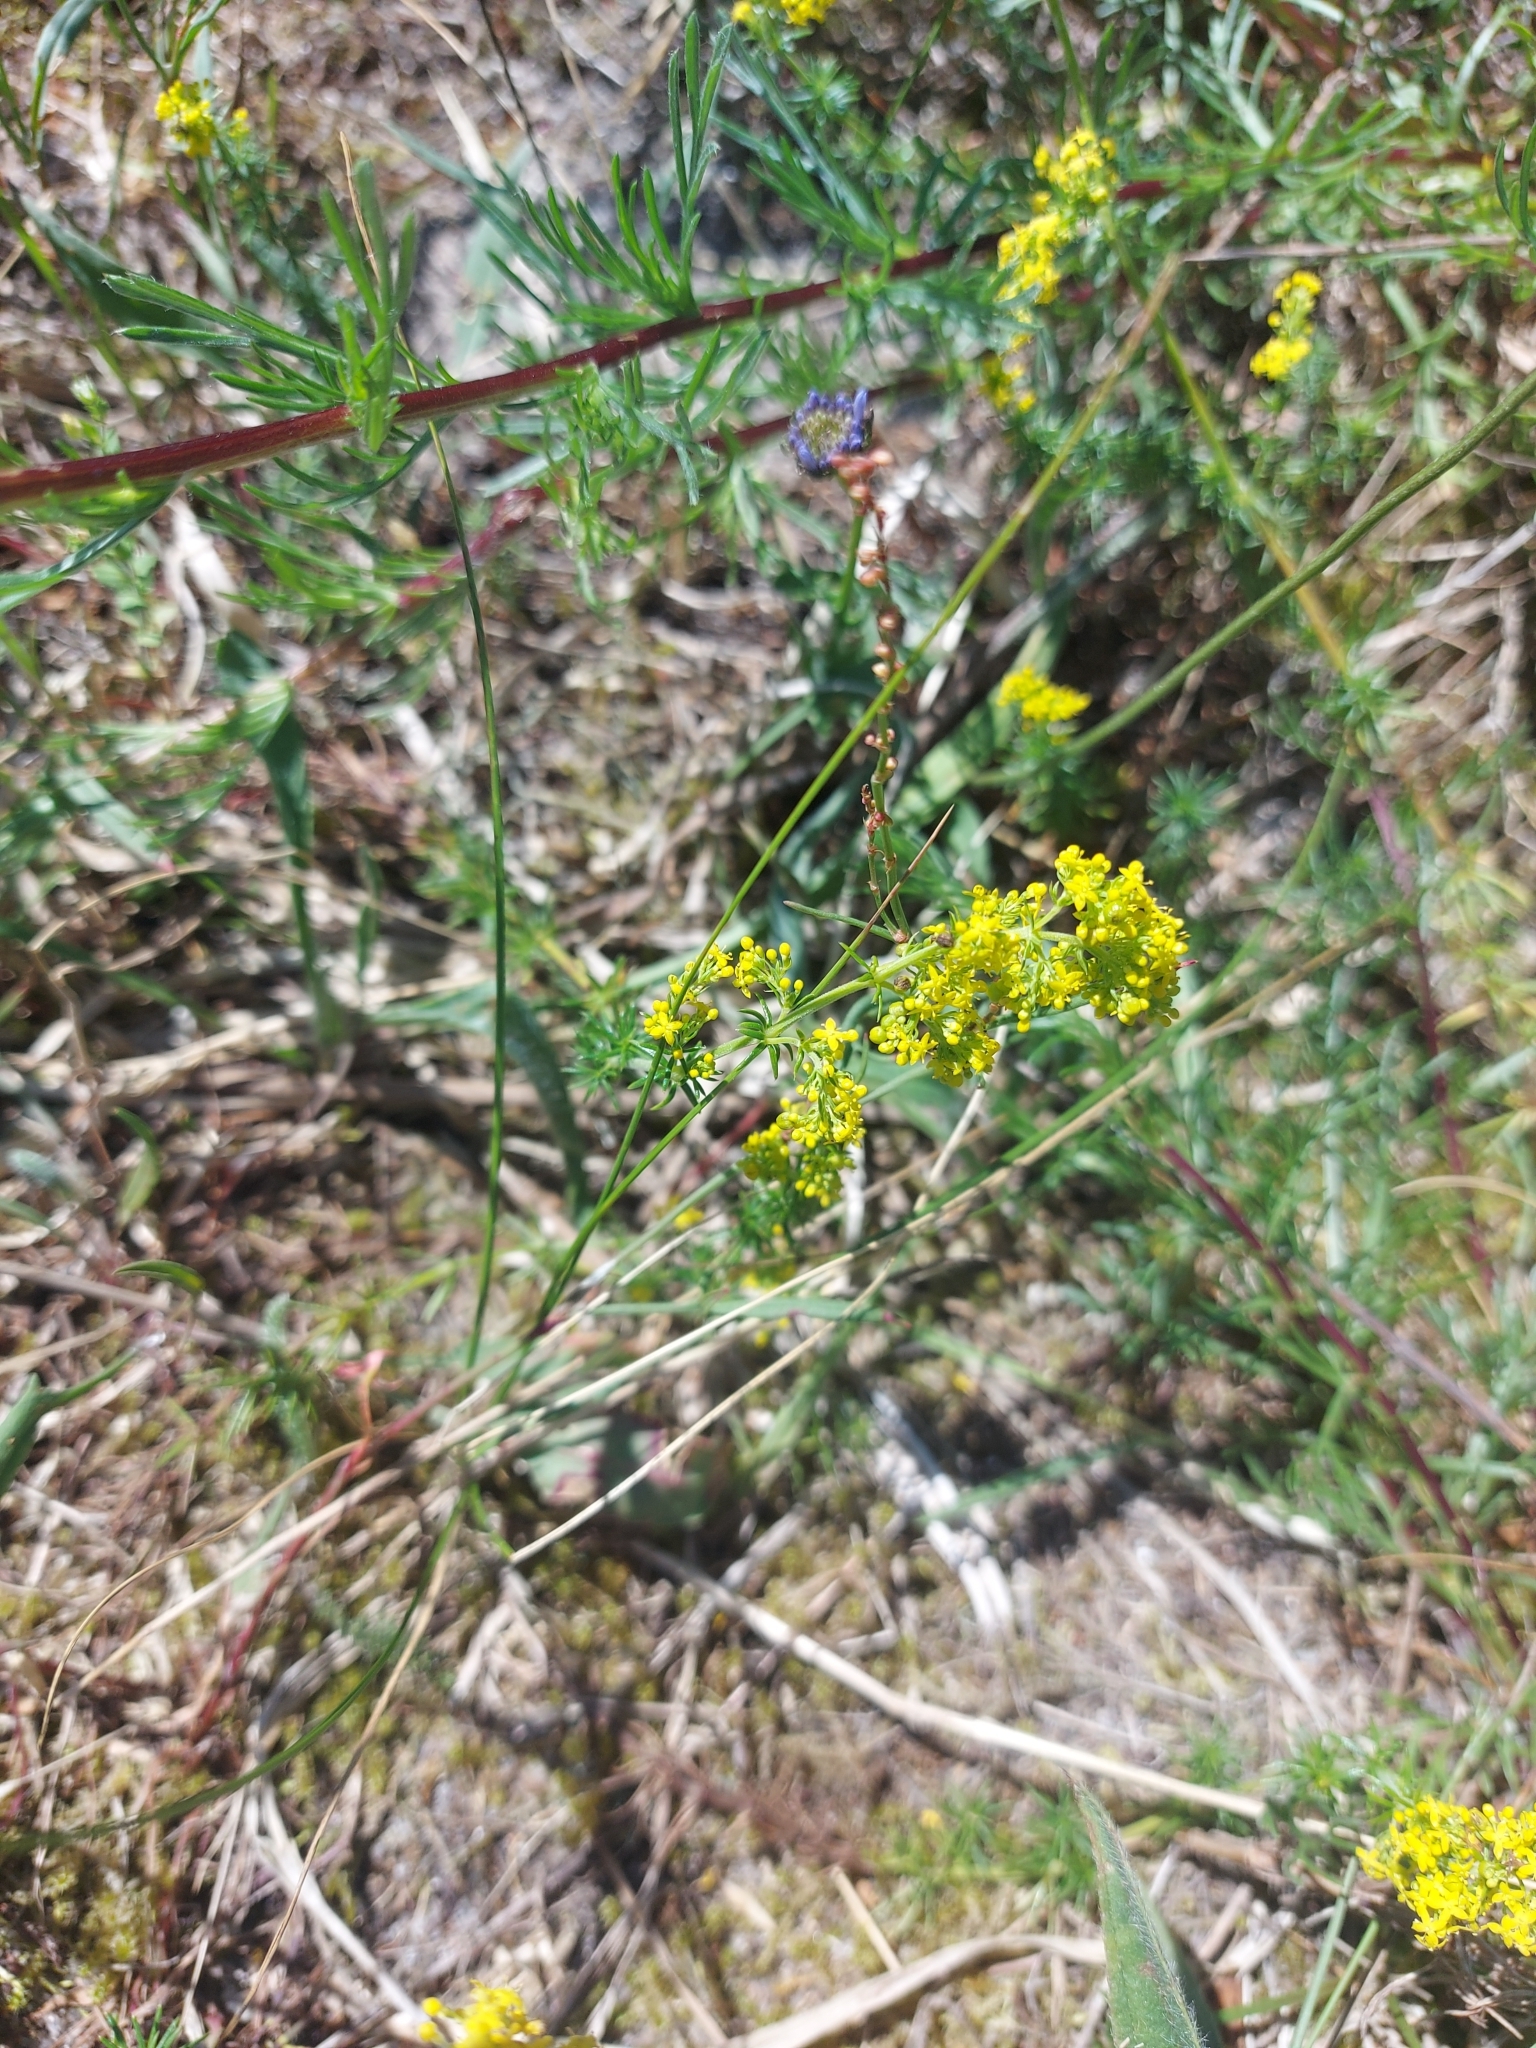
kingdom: Plantae
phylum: Tracheophyta
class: Magnoliopsida
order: Gentianales
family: Rubiaceae
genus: Galium
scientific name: Galium verum
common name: Lady's bedstraw
